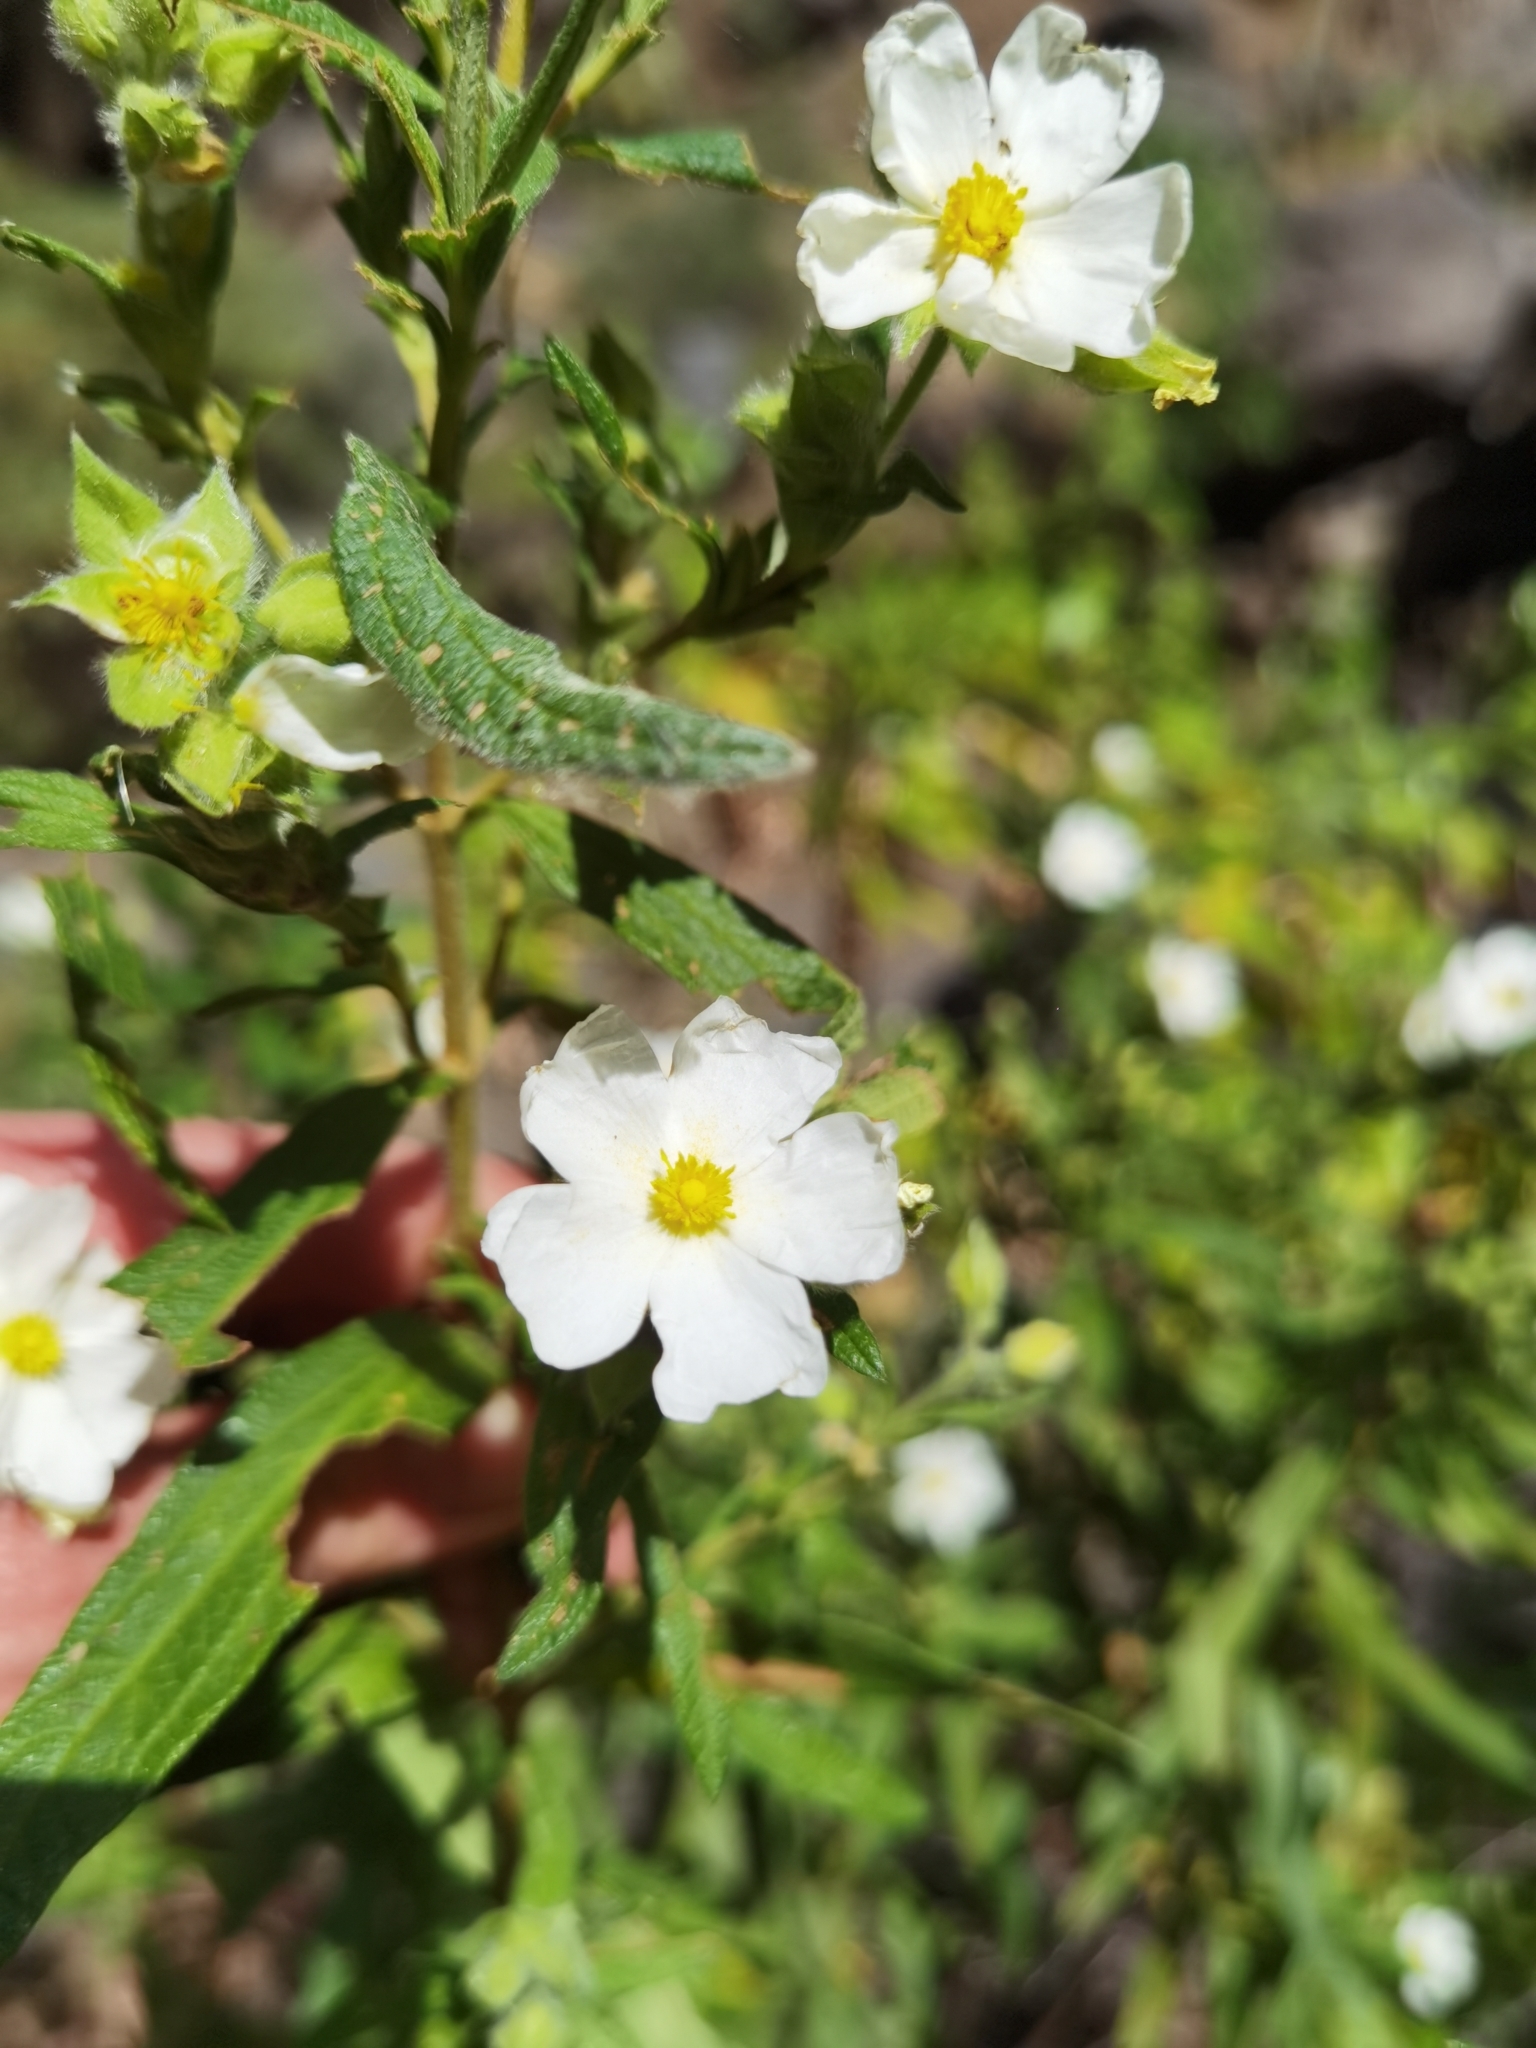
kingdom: Plantae
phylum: Tracheophyta
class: Magnoliopsida
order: Malvales
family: Cistaceae
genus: Cistus
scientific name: Cistus monspeliensis
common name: Montpelier cistus
